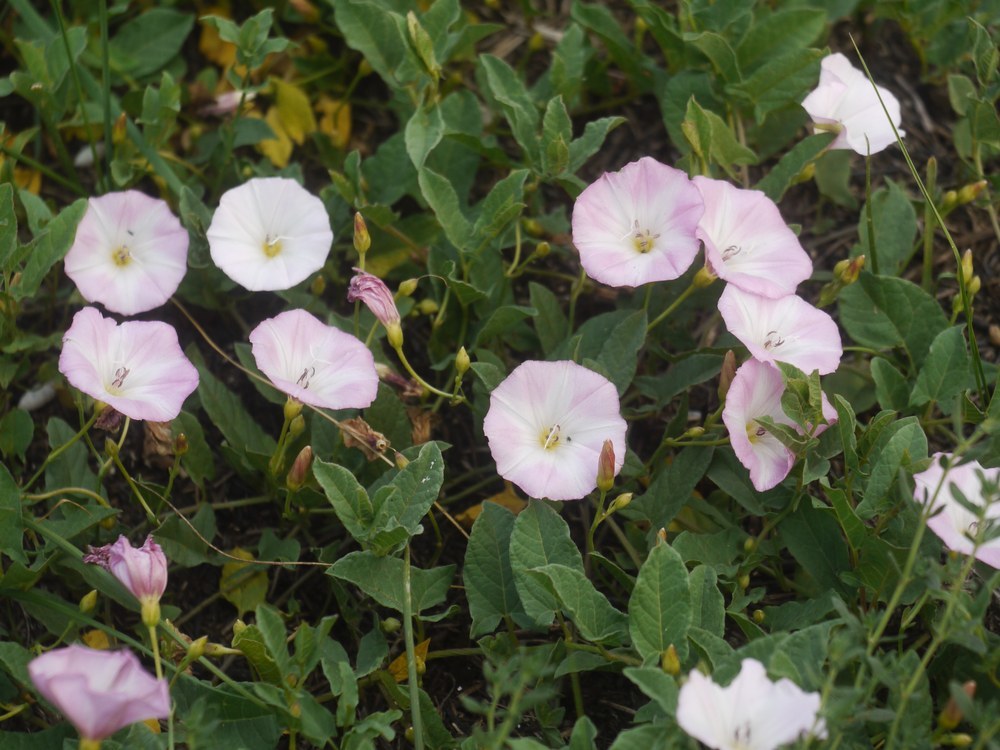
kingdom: Plantae
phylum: Tracheophyta
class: Magnoliopsida
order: Solanales
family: Convolvulaceae
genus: Convolvulus
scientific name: Convolvulus arvensis
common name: Field bindweed
